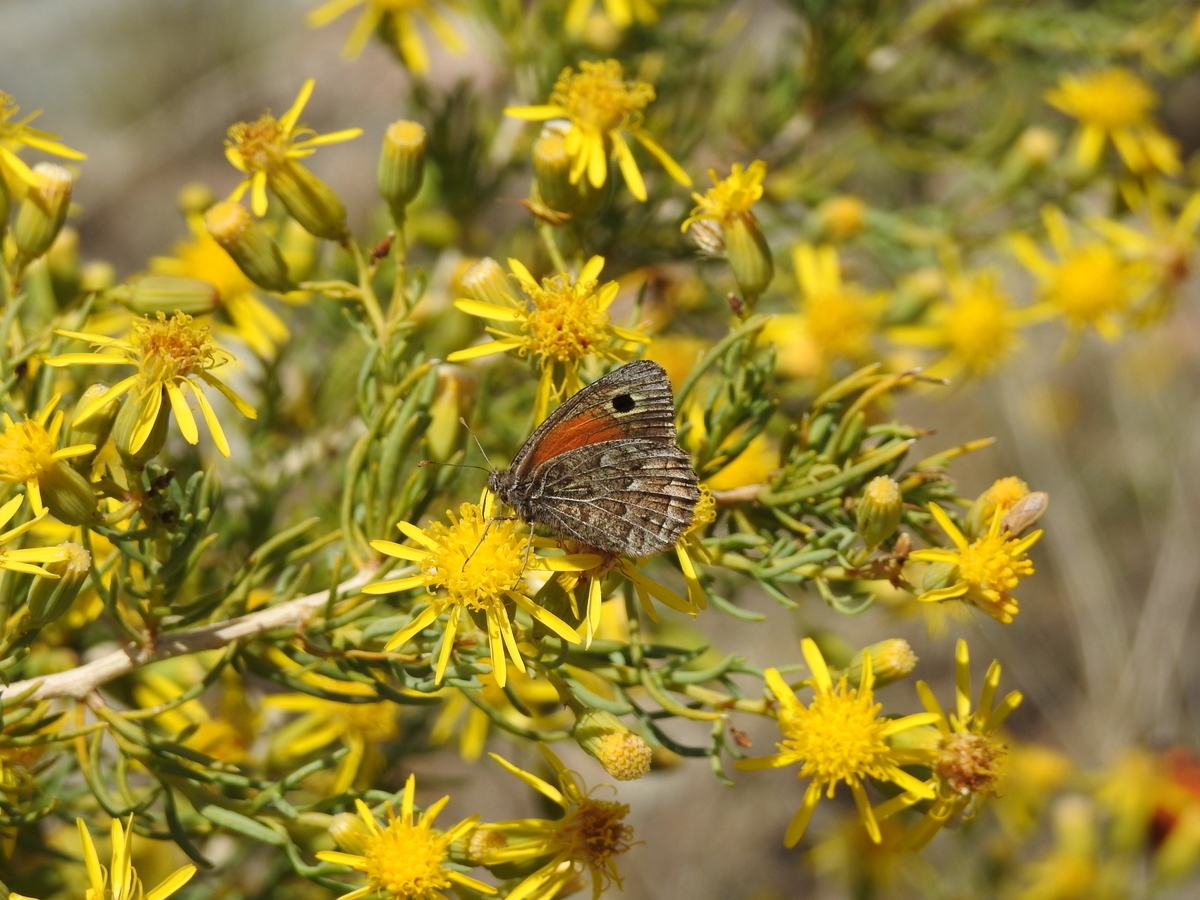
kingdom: Animalia
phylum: Arthropoda
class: Insecta
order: Lepidoptera
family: Nymphalidae
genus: Argyrophorus
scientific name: Argyrophorus
